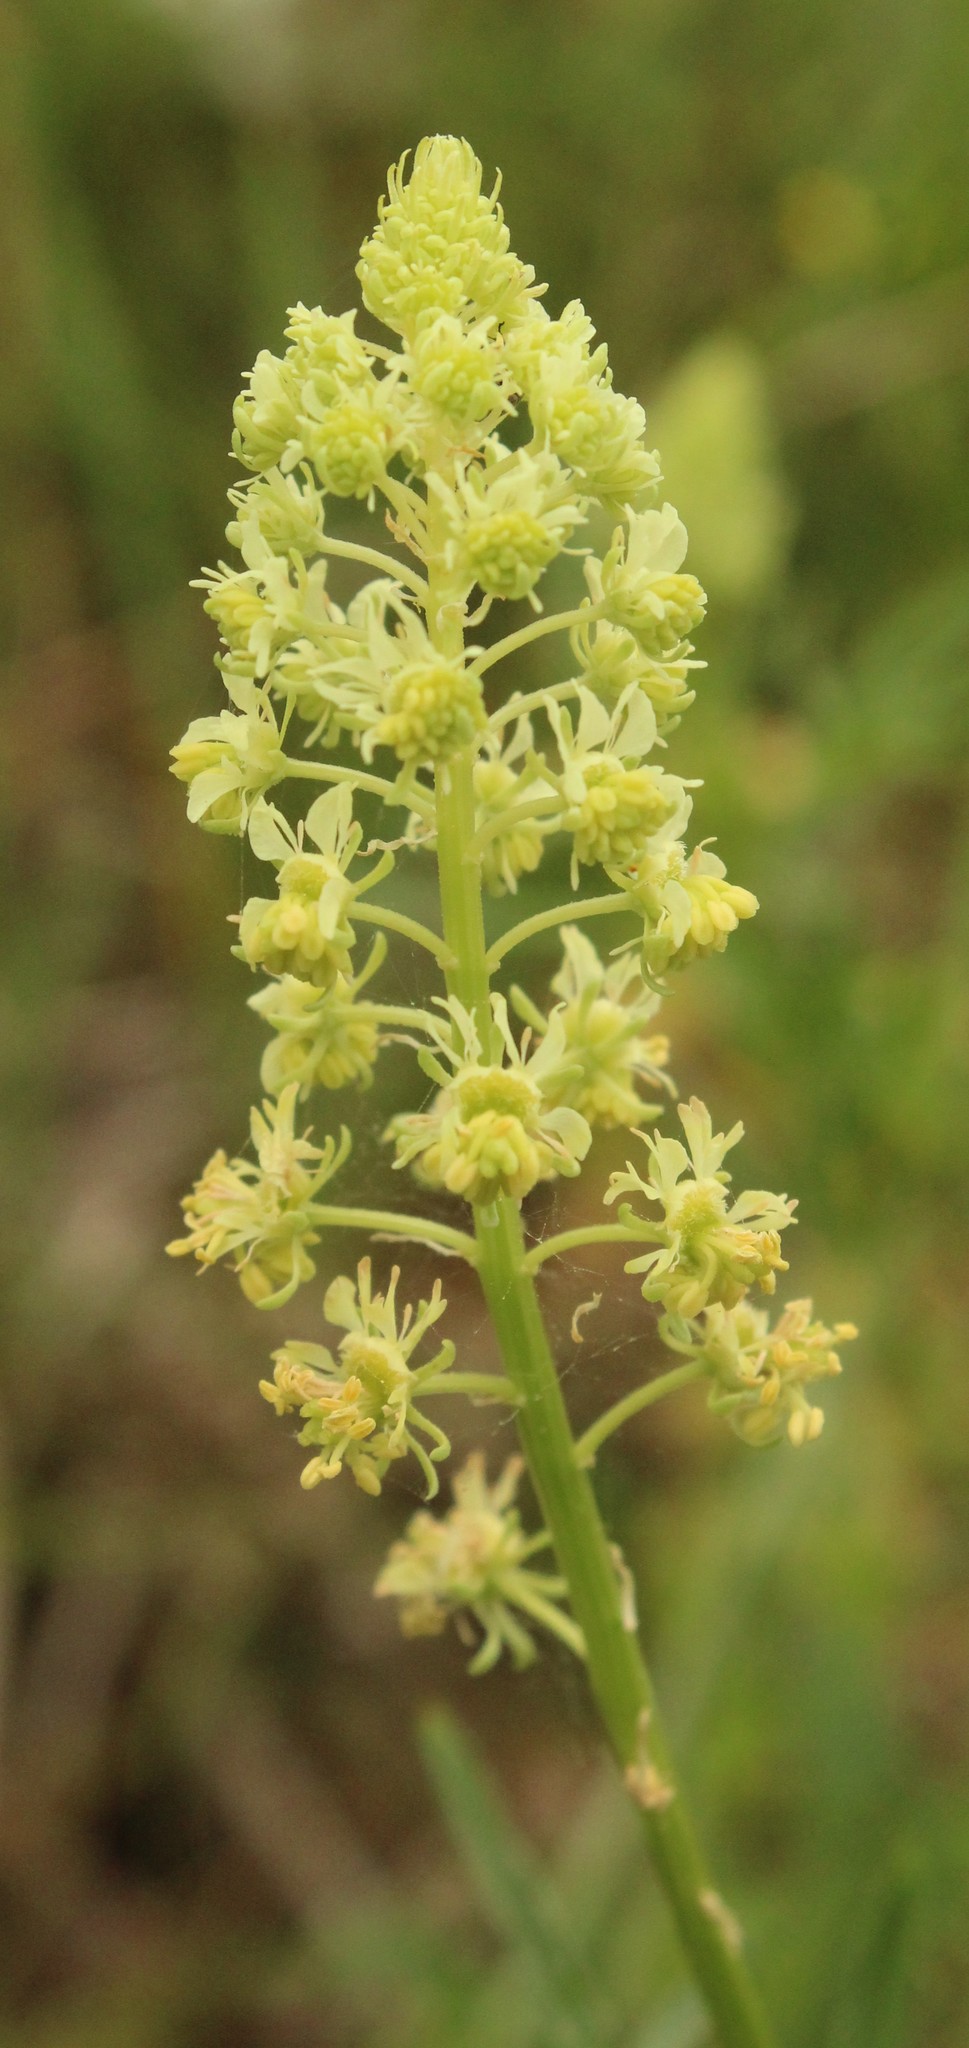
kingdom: Plantae
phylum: Tracheophyta
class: Magnoliopsida
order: Brassicales
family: Resedaceae
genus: Reseda
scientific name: Reseda lutea
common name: Wild mignonette
